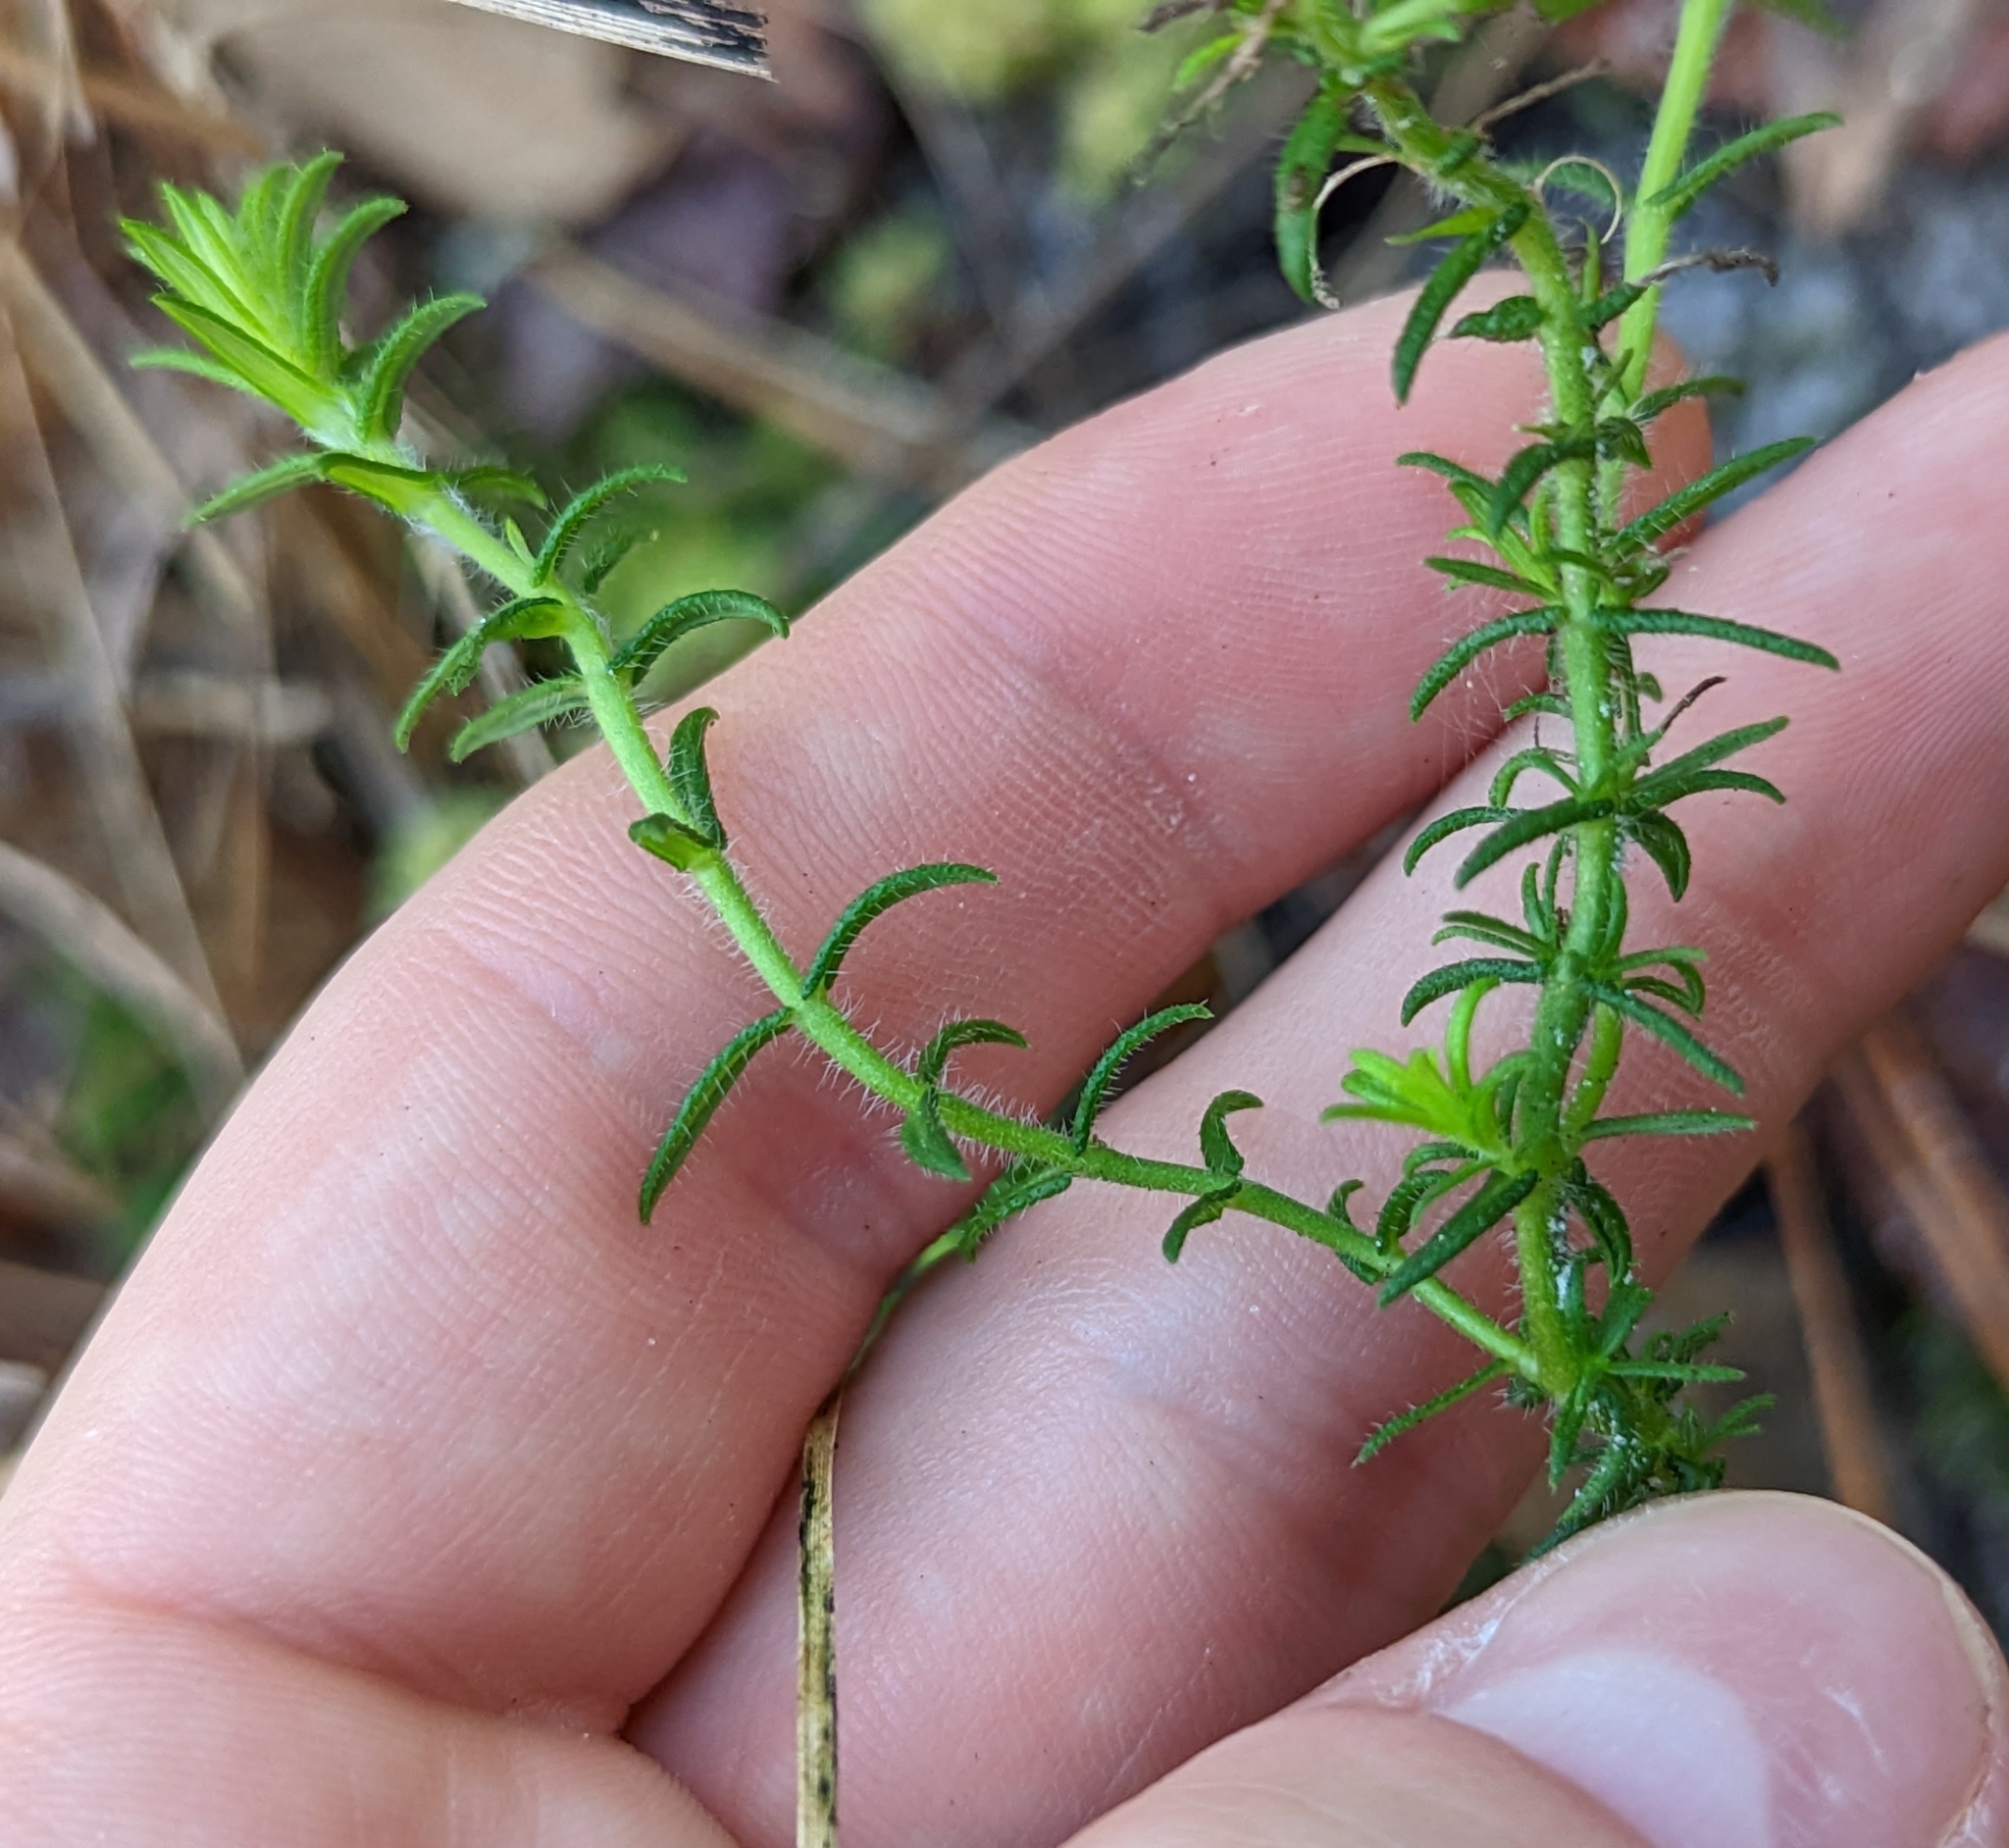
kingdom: Plantae
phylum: Tracheophyta
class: Magnoliopsida
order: Lamiales
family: Lamiaceae
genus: Piloblephis
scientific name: Piloblephis rigida
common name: Wild pennyroyal
